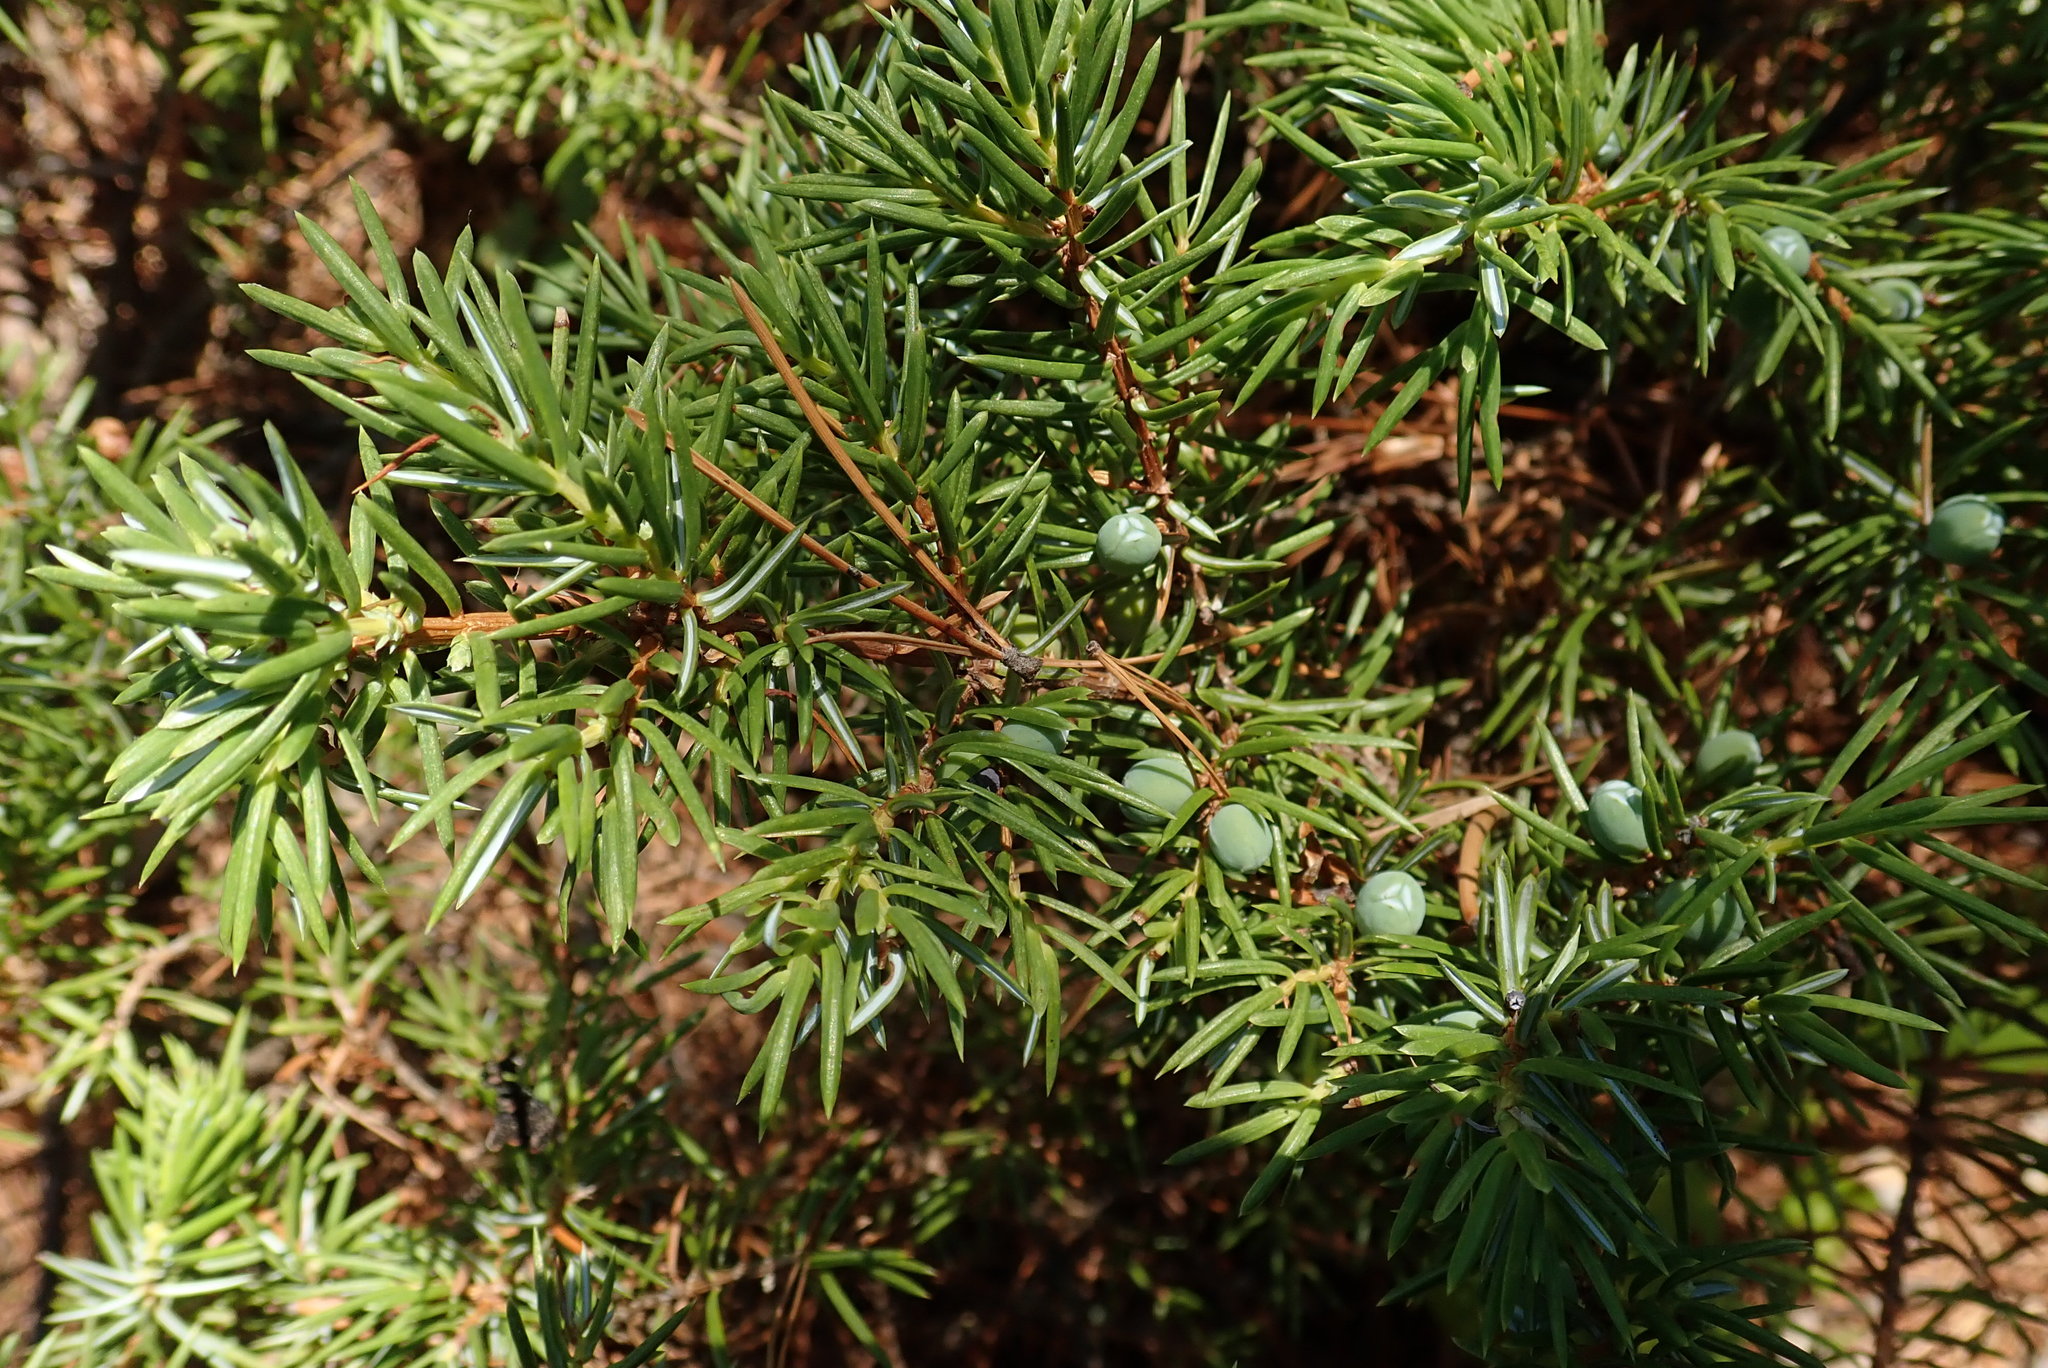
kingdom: Plantae
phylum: Tracheophyta
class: Pinopsida
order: Pinales
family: Cupressaceae
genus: Juniperus
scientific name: Juniperus communis
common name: Common juniper
